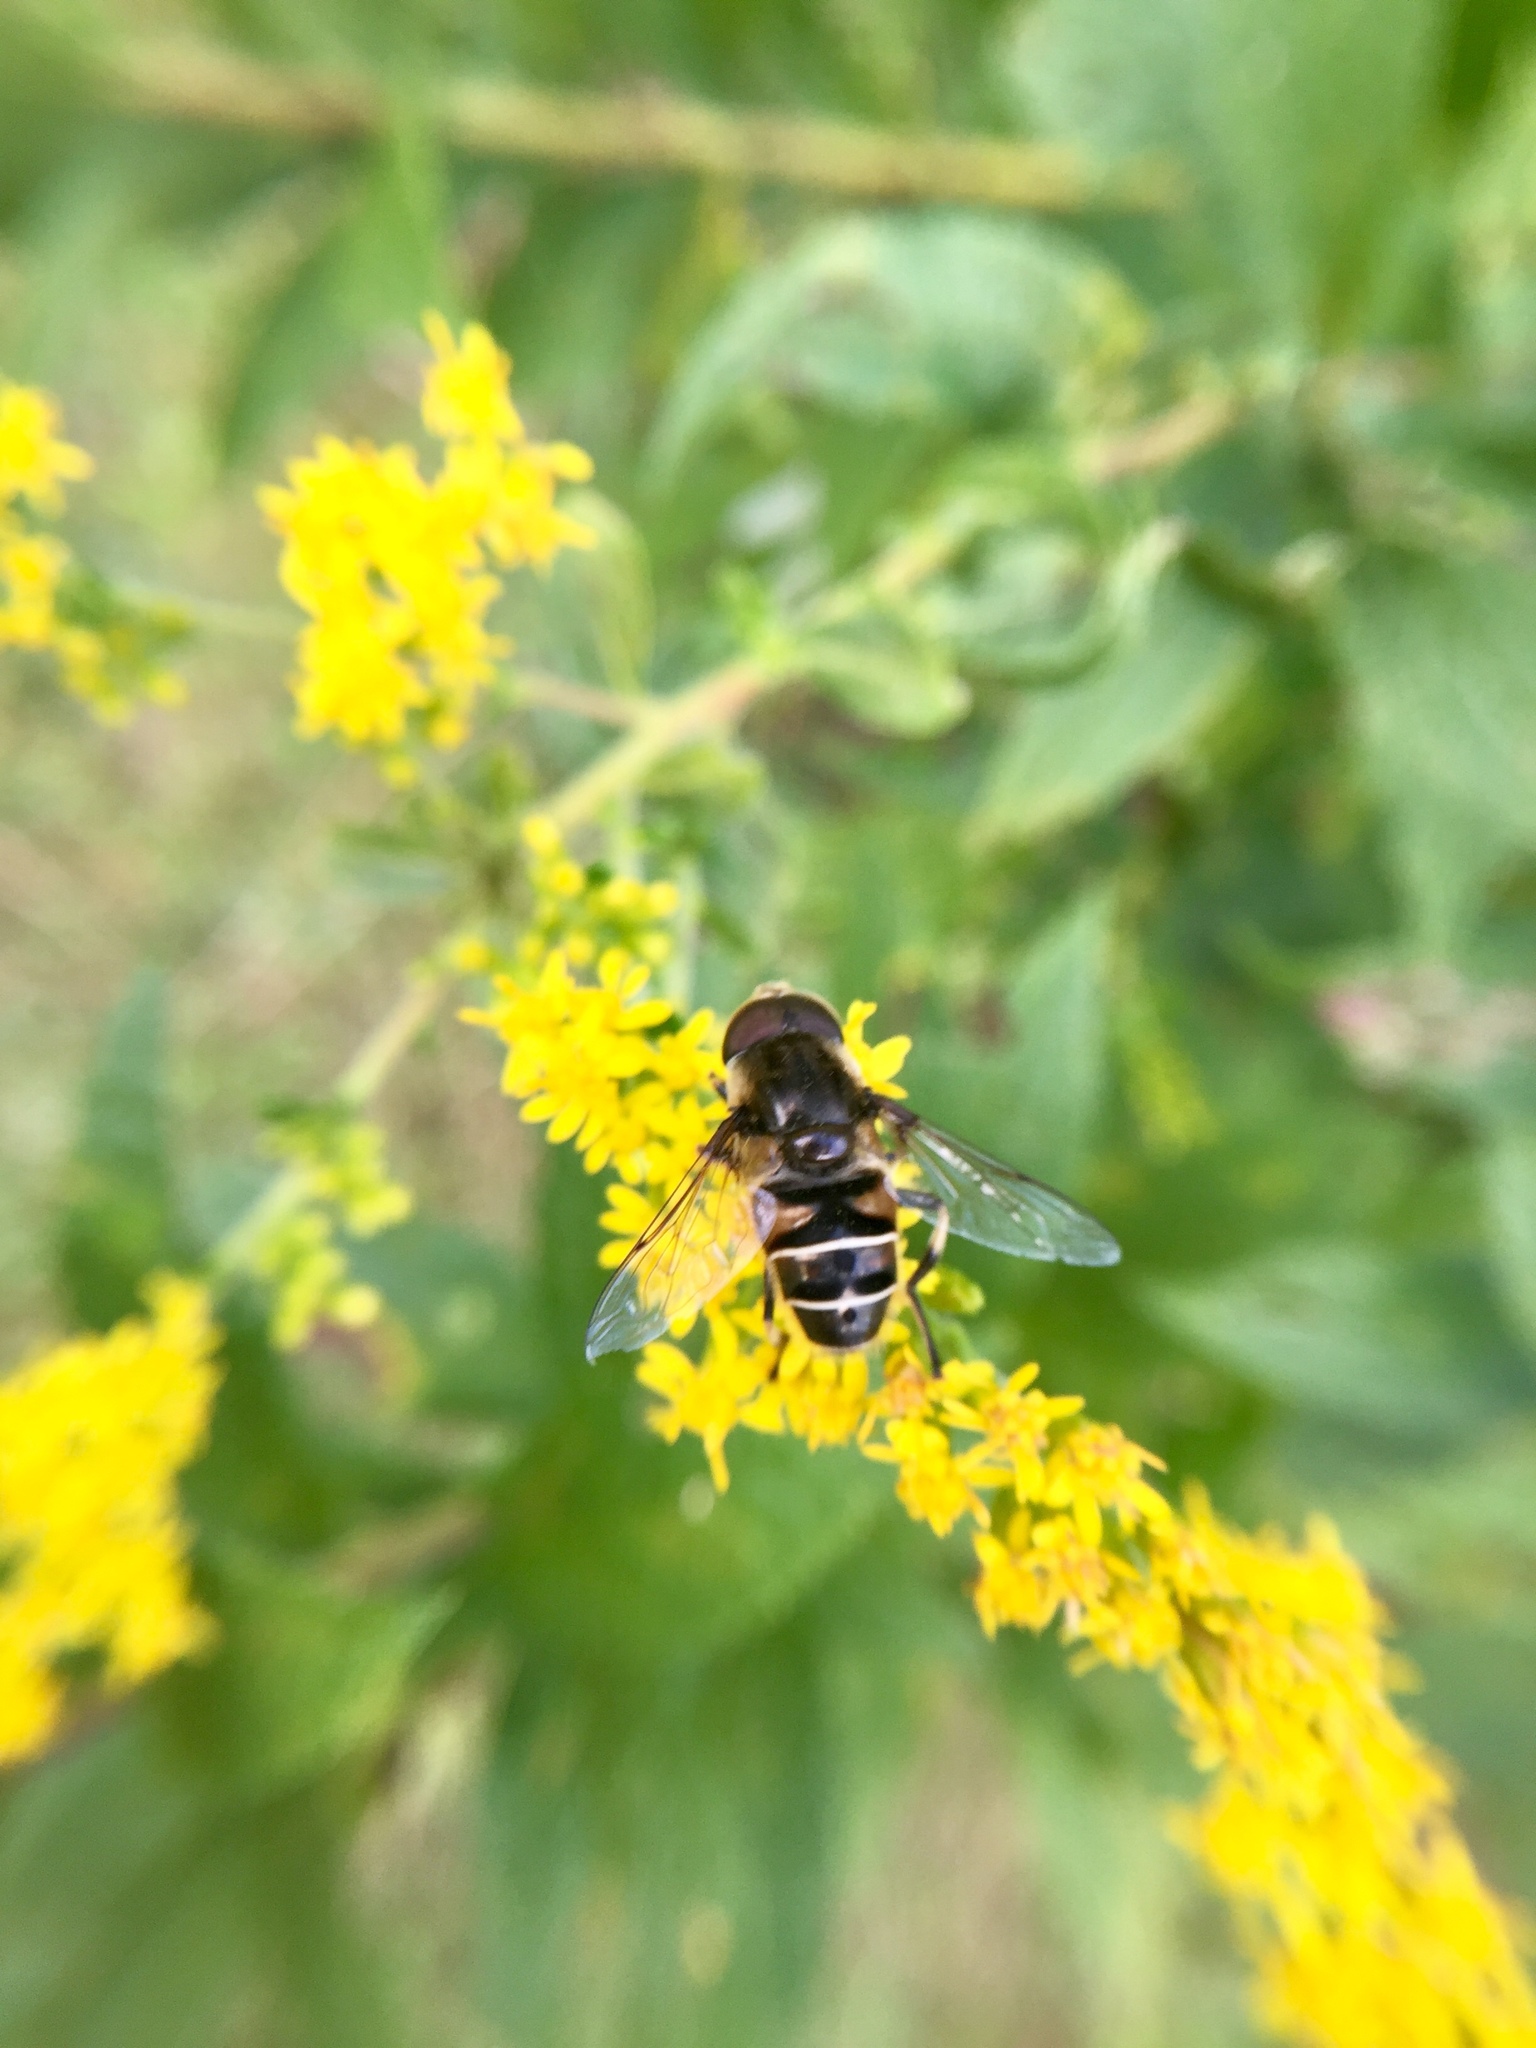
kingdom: Animalia
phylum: Arthropoda
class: Insecta
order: Diptera
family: Syrphidae
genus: Eristalis
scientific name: Eristalis dimidiata
